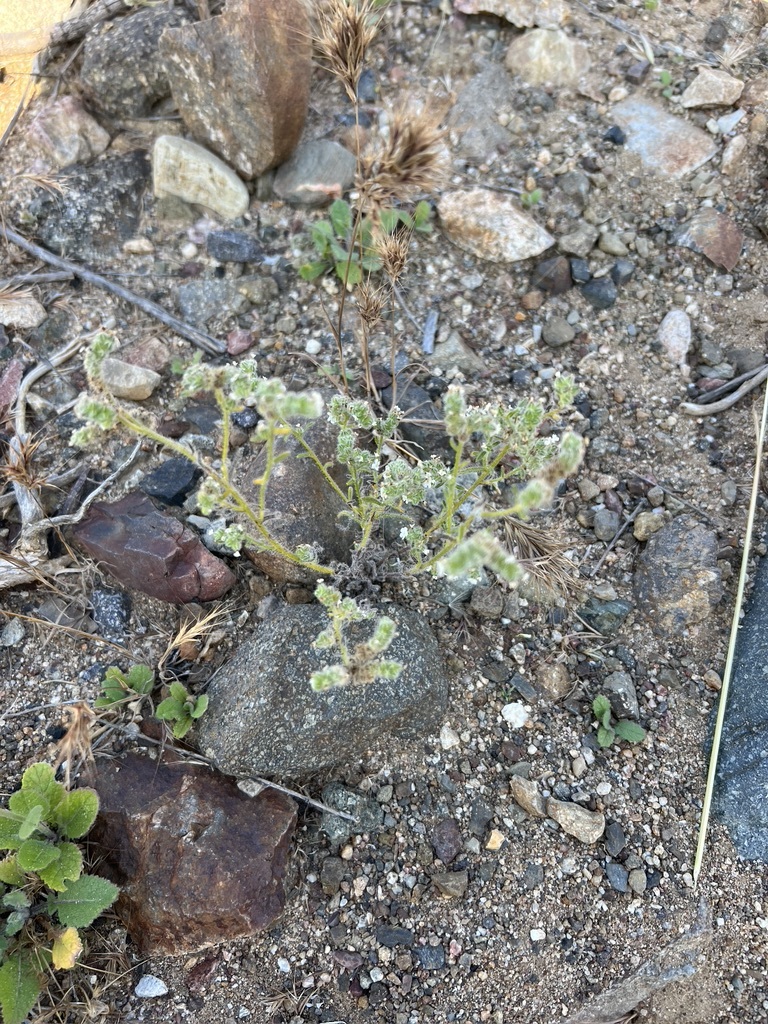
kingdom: Plantae
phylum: Tracheophyta
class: Magnoliopsida
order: Boraginales
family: Boraginaceae
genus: Cryptantha
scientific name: Cryptantha microstachys
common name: Tejon cryptantha
